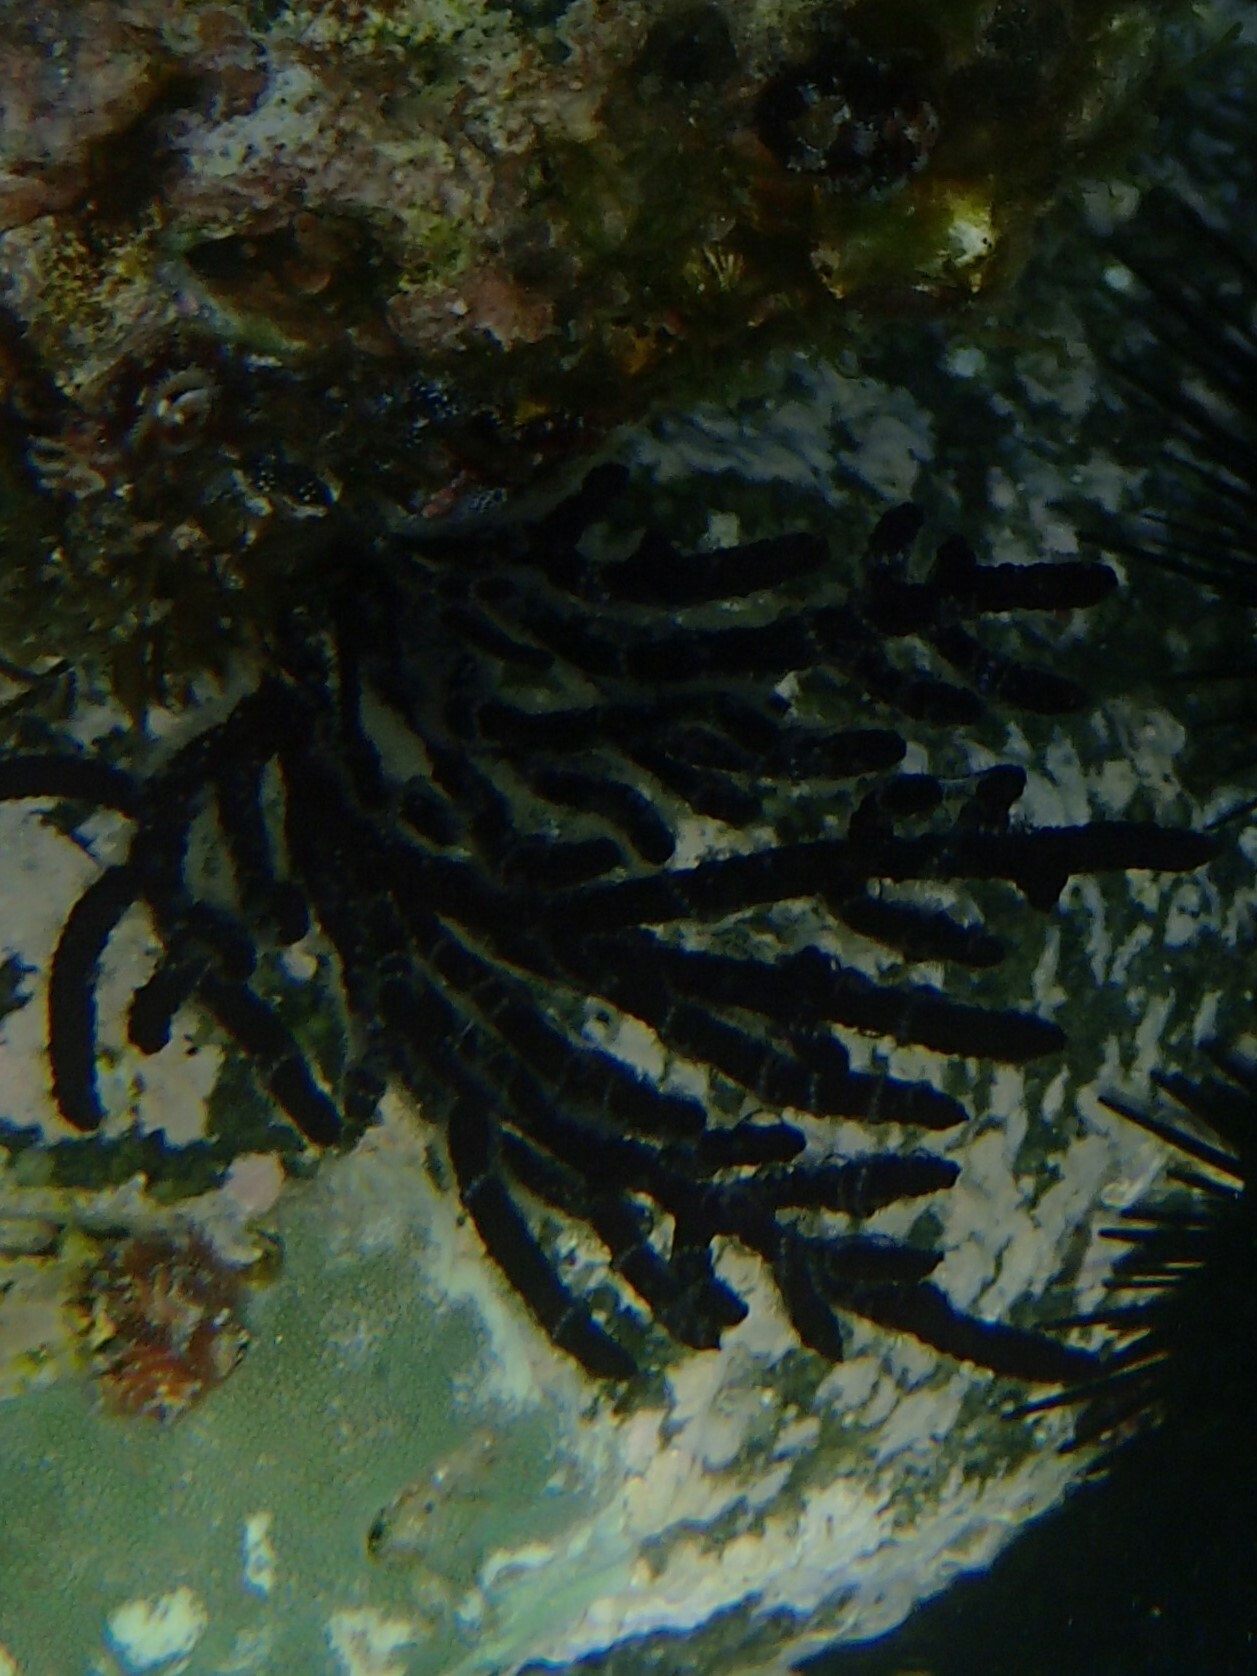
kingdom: Plantae
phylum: Chlorophyta
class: Ulvophyceae
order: Bryopsidales
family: Codiaceae
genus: Codium
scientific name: Codium fragile
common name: Dead man's fingers
